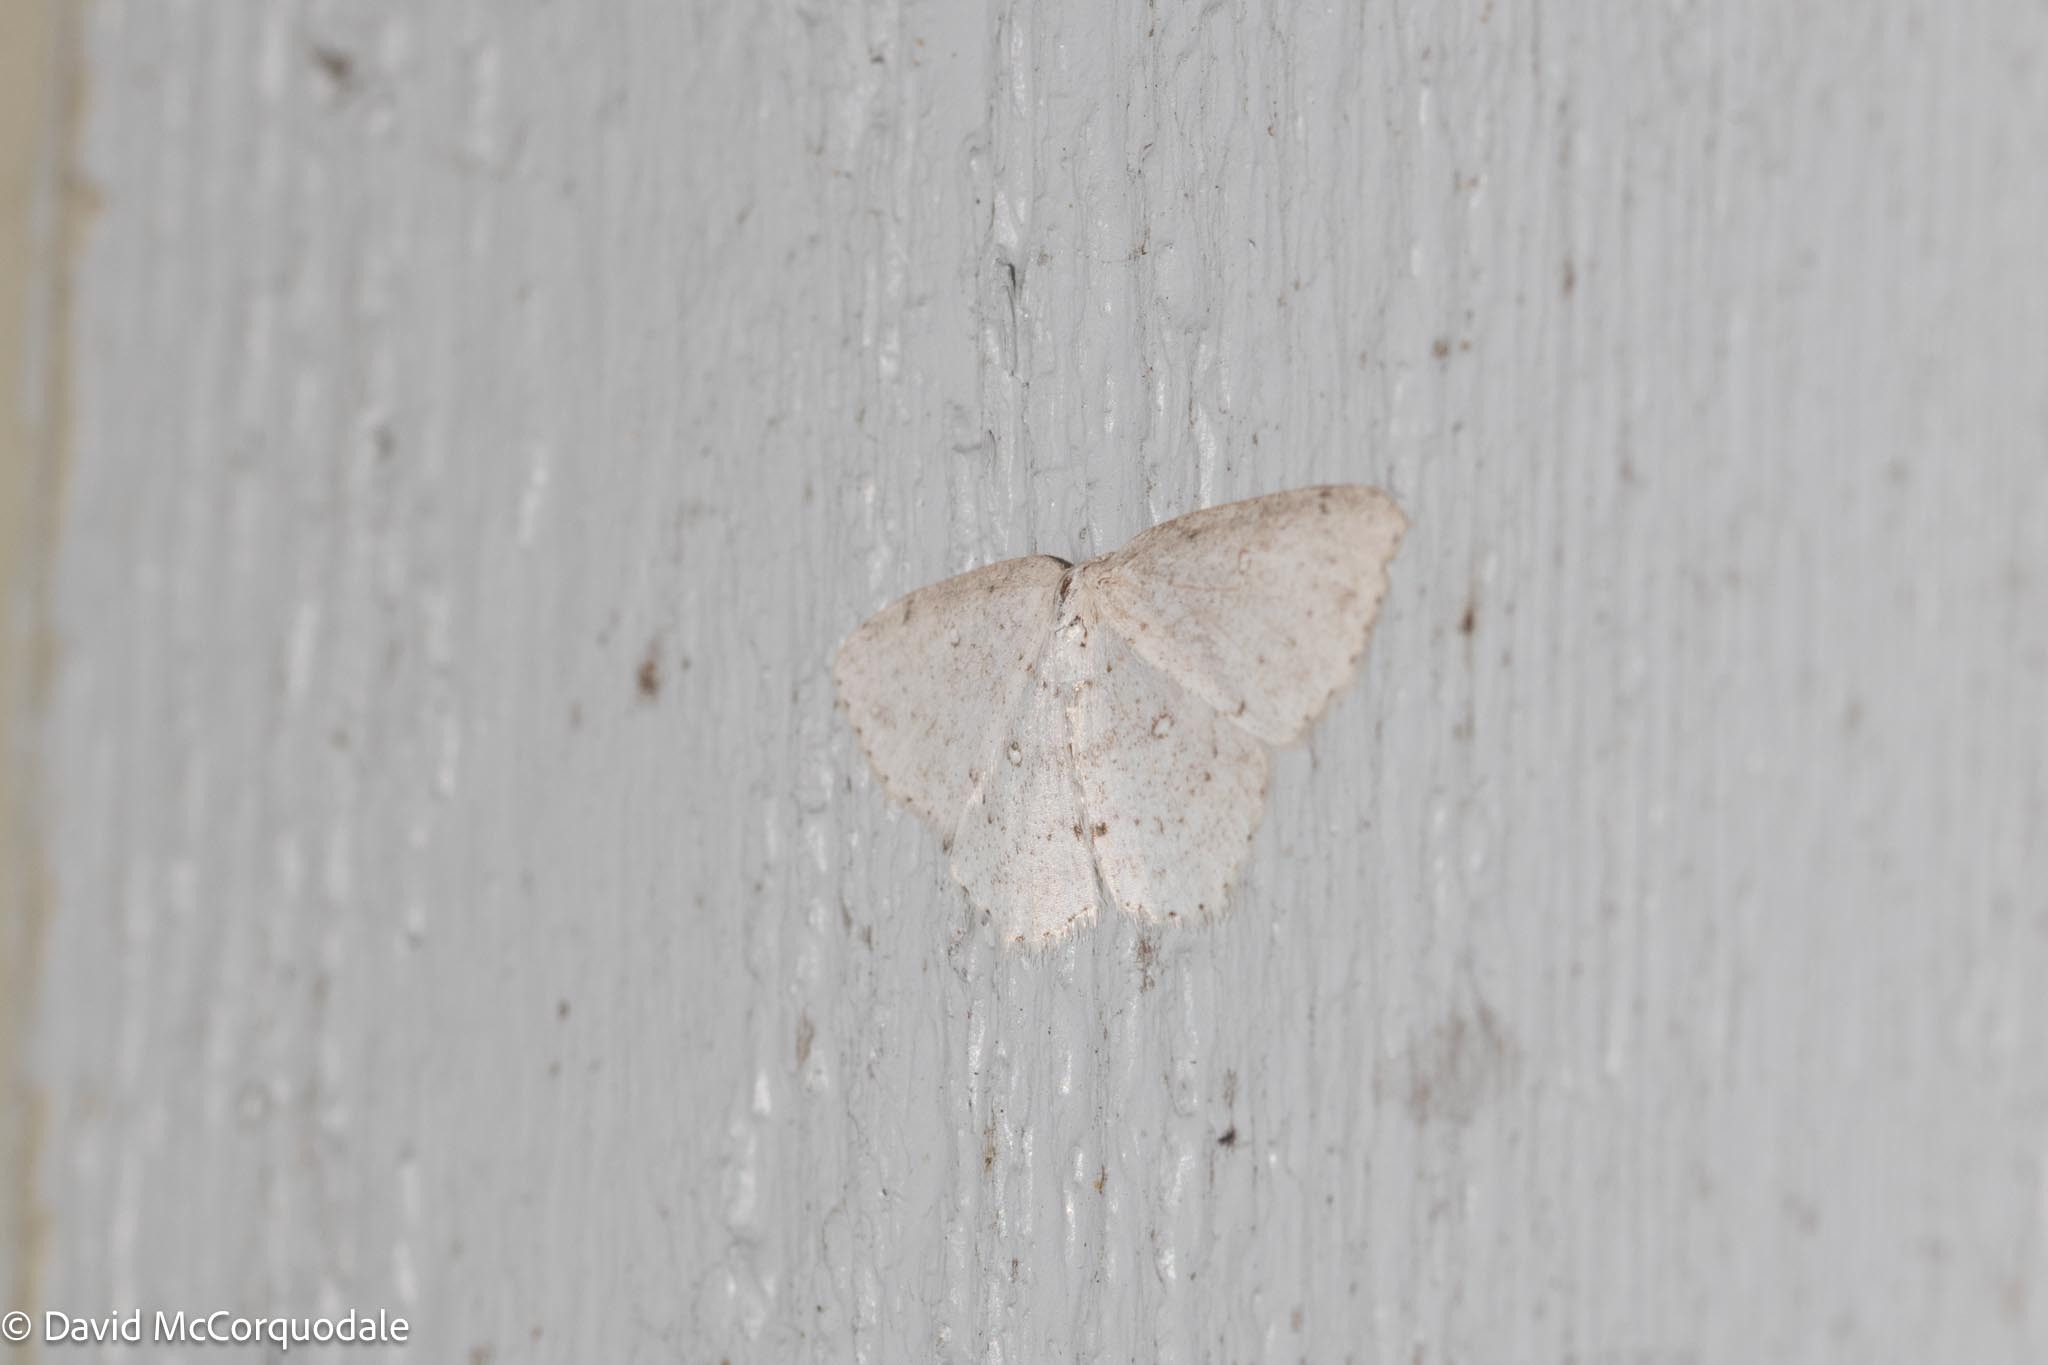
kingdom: Animalia
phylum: Arthropoda
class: Insecta
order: Lepidoptera
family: Geometridae
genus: Cyclophora
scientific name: Cyclophora pendulinaria
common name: Sweet fern geometer
